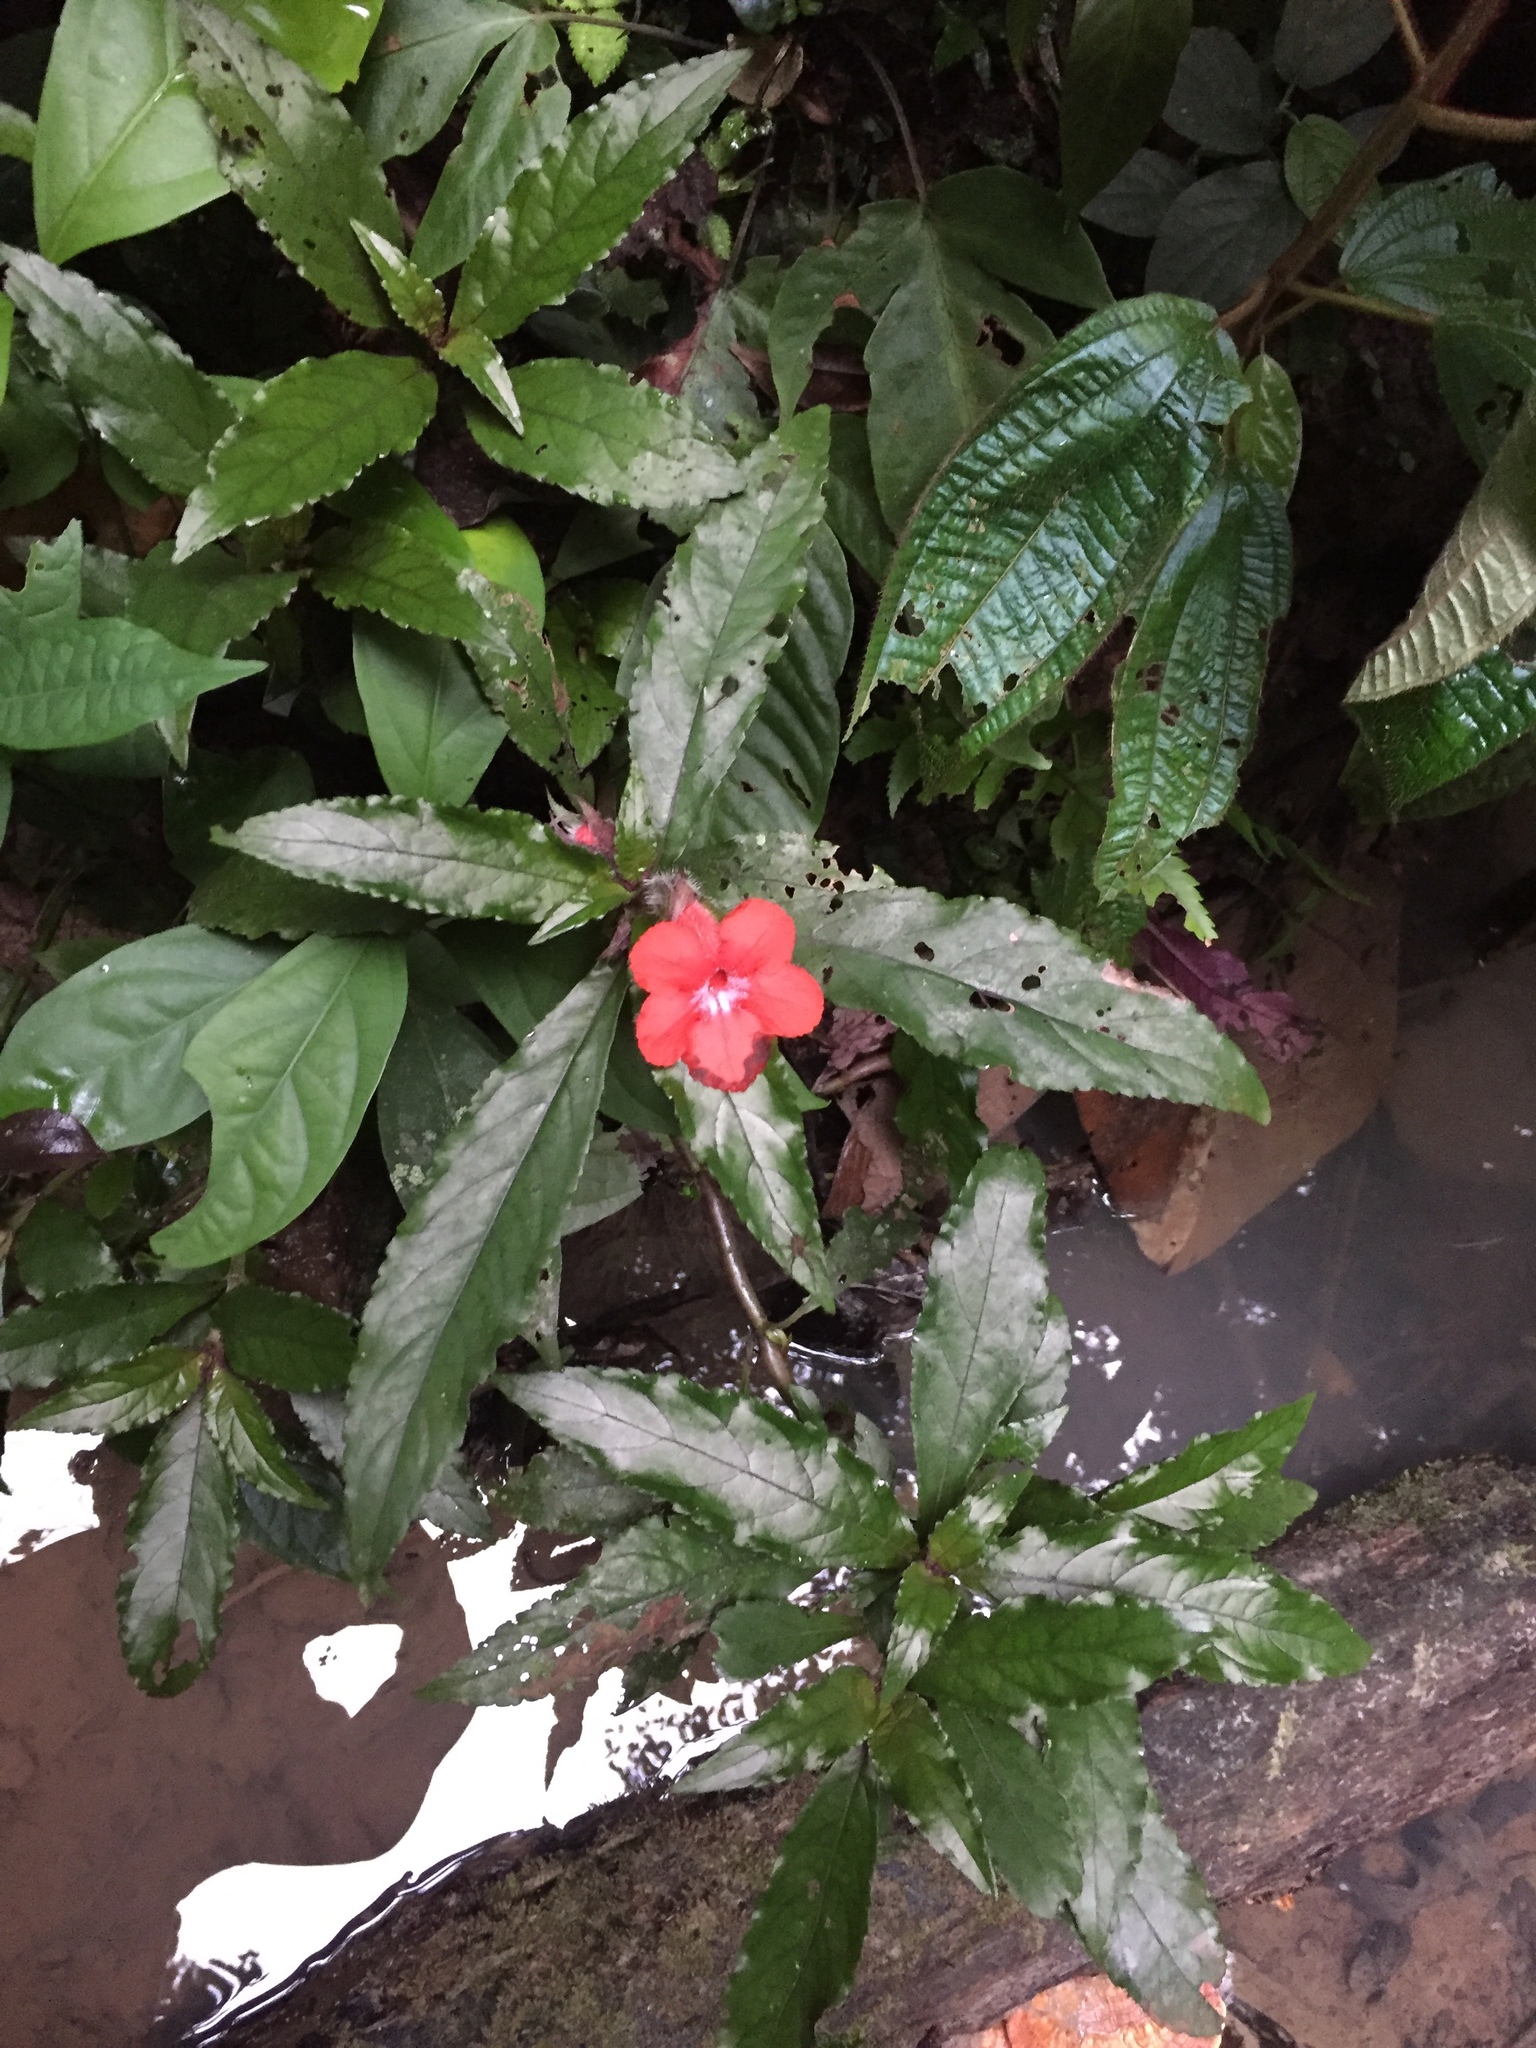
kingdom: Plantae
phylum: Tracheophyta
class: Magnoliopsida
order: Lamiales
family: Gesneriaceae
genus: Nautilocalyx
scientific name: Nautilocalyx erytranthus
